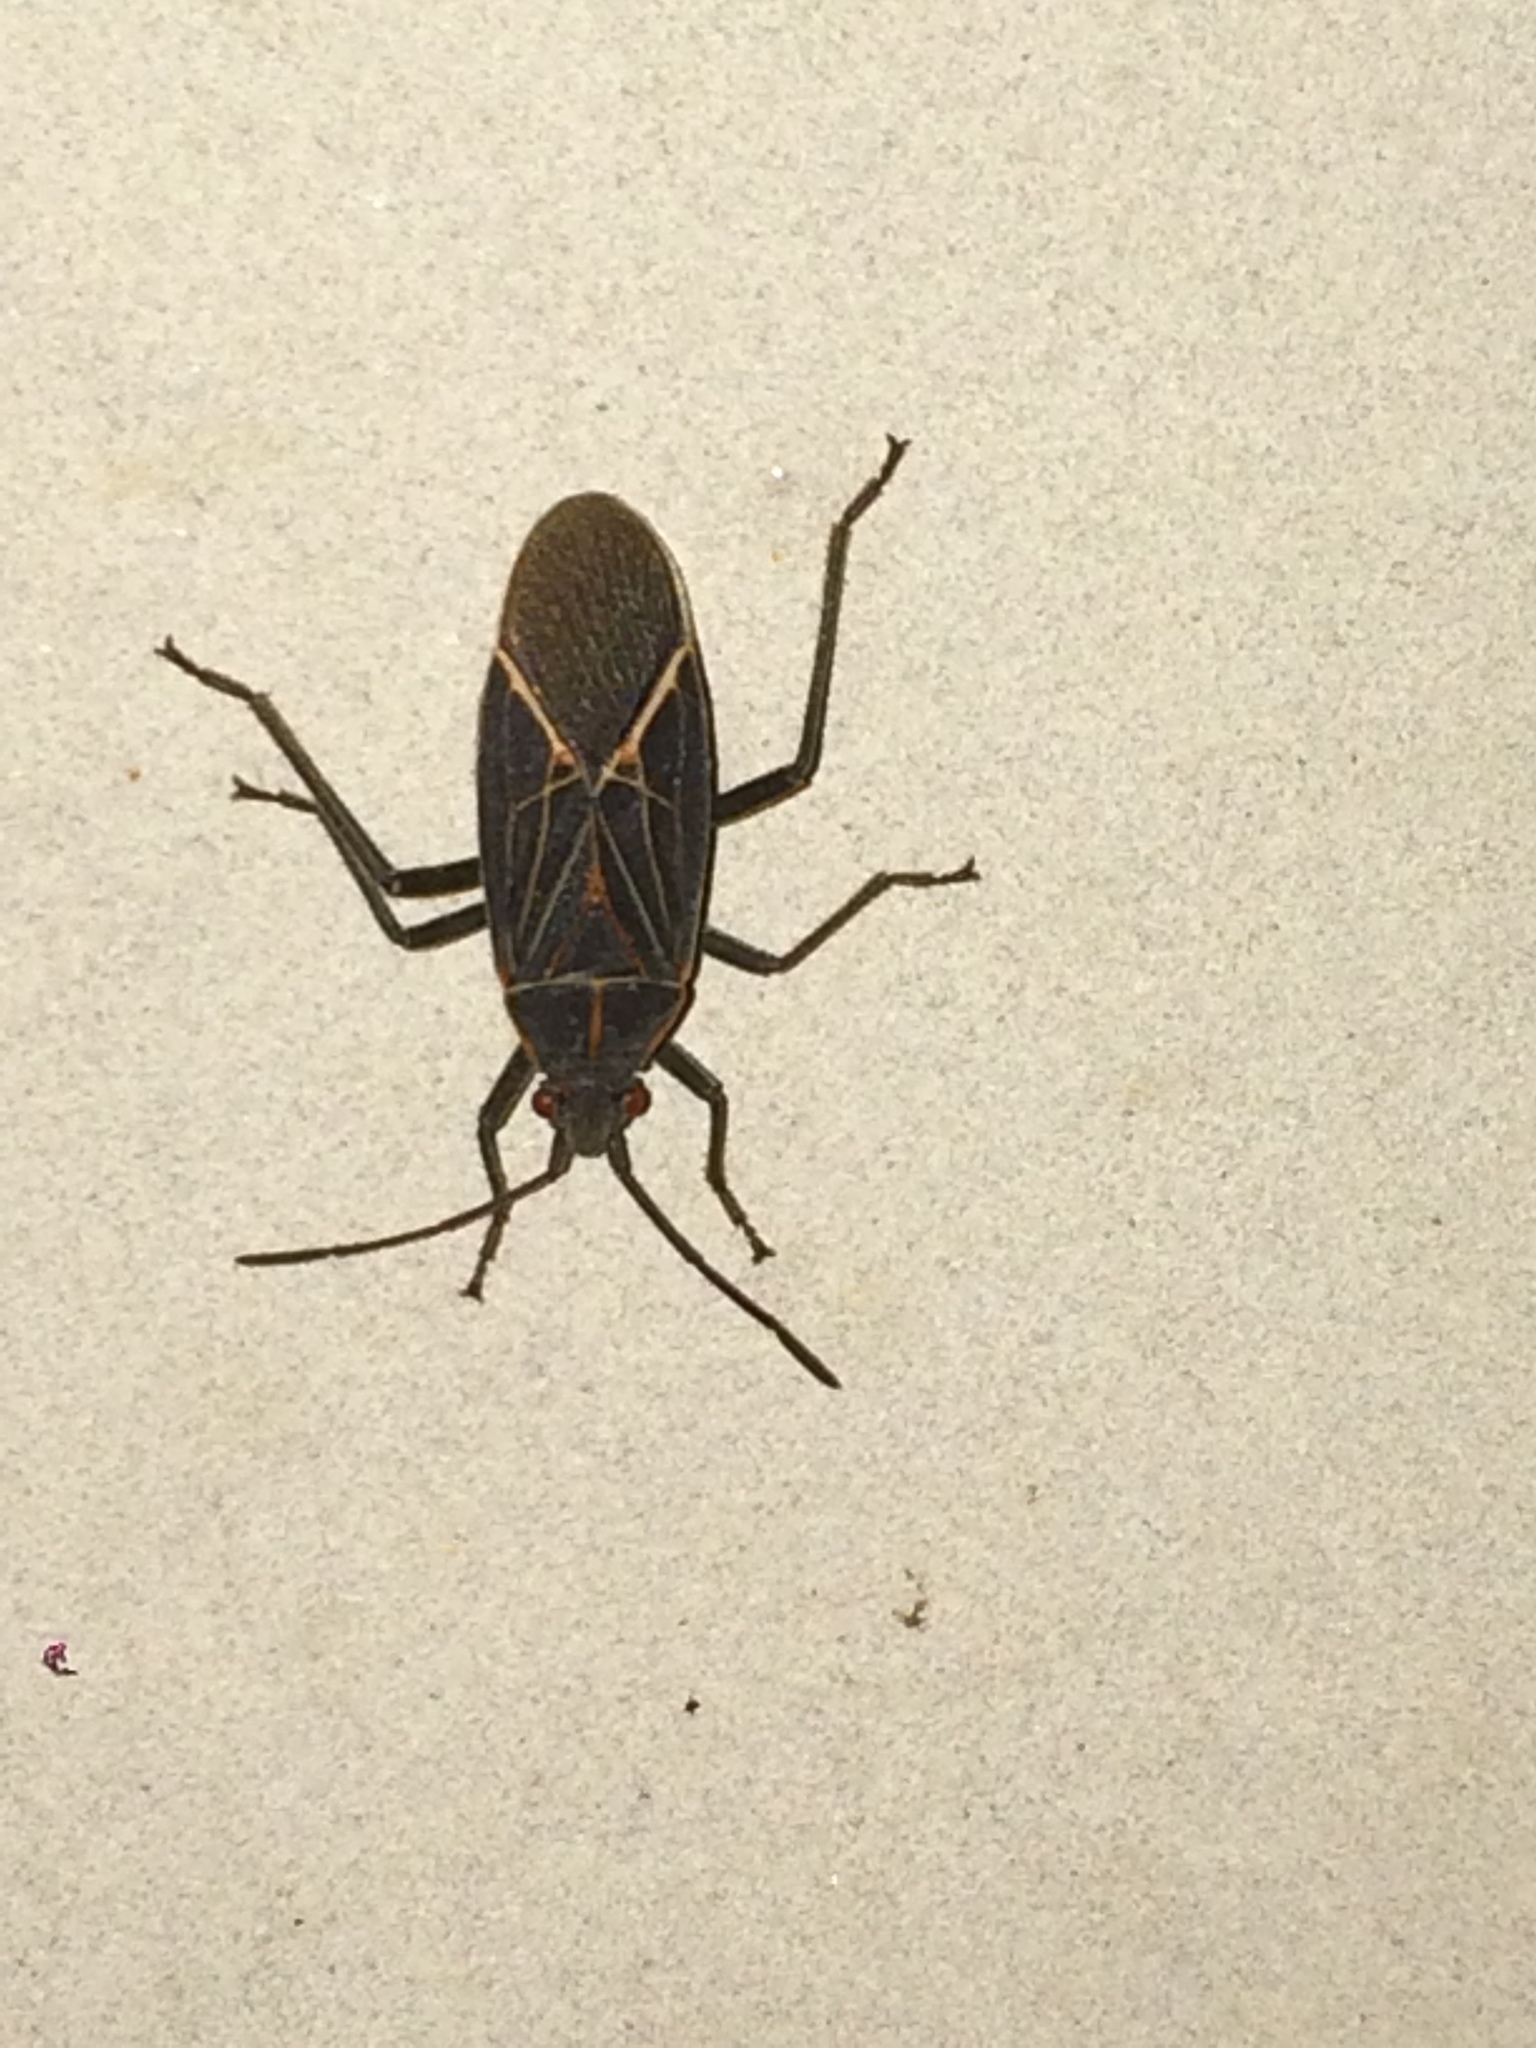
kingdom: Animalia
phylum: Arthropoda
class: Insecta
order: Hemiptera
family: Rhopalidae
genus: Boisea
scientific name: Boisea rubrolineata
